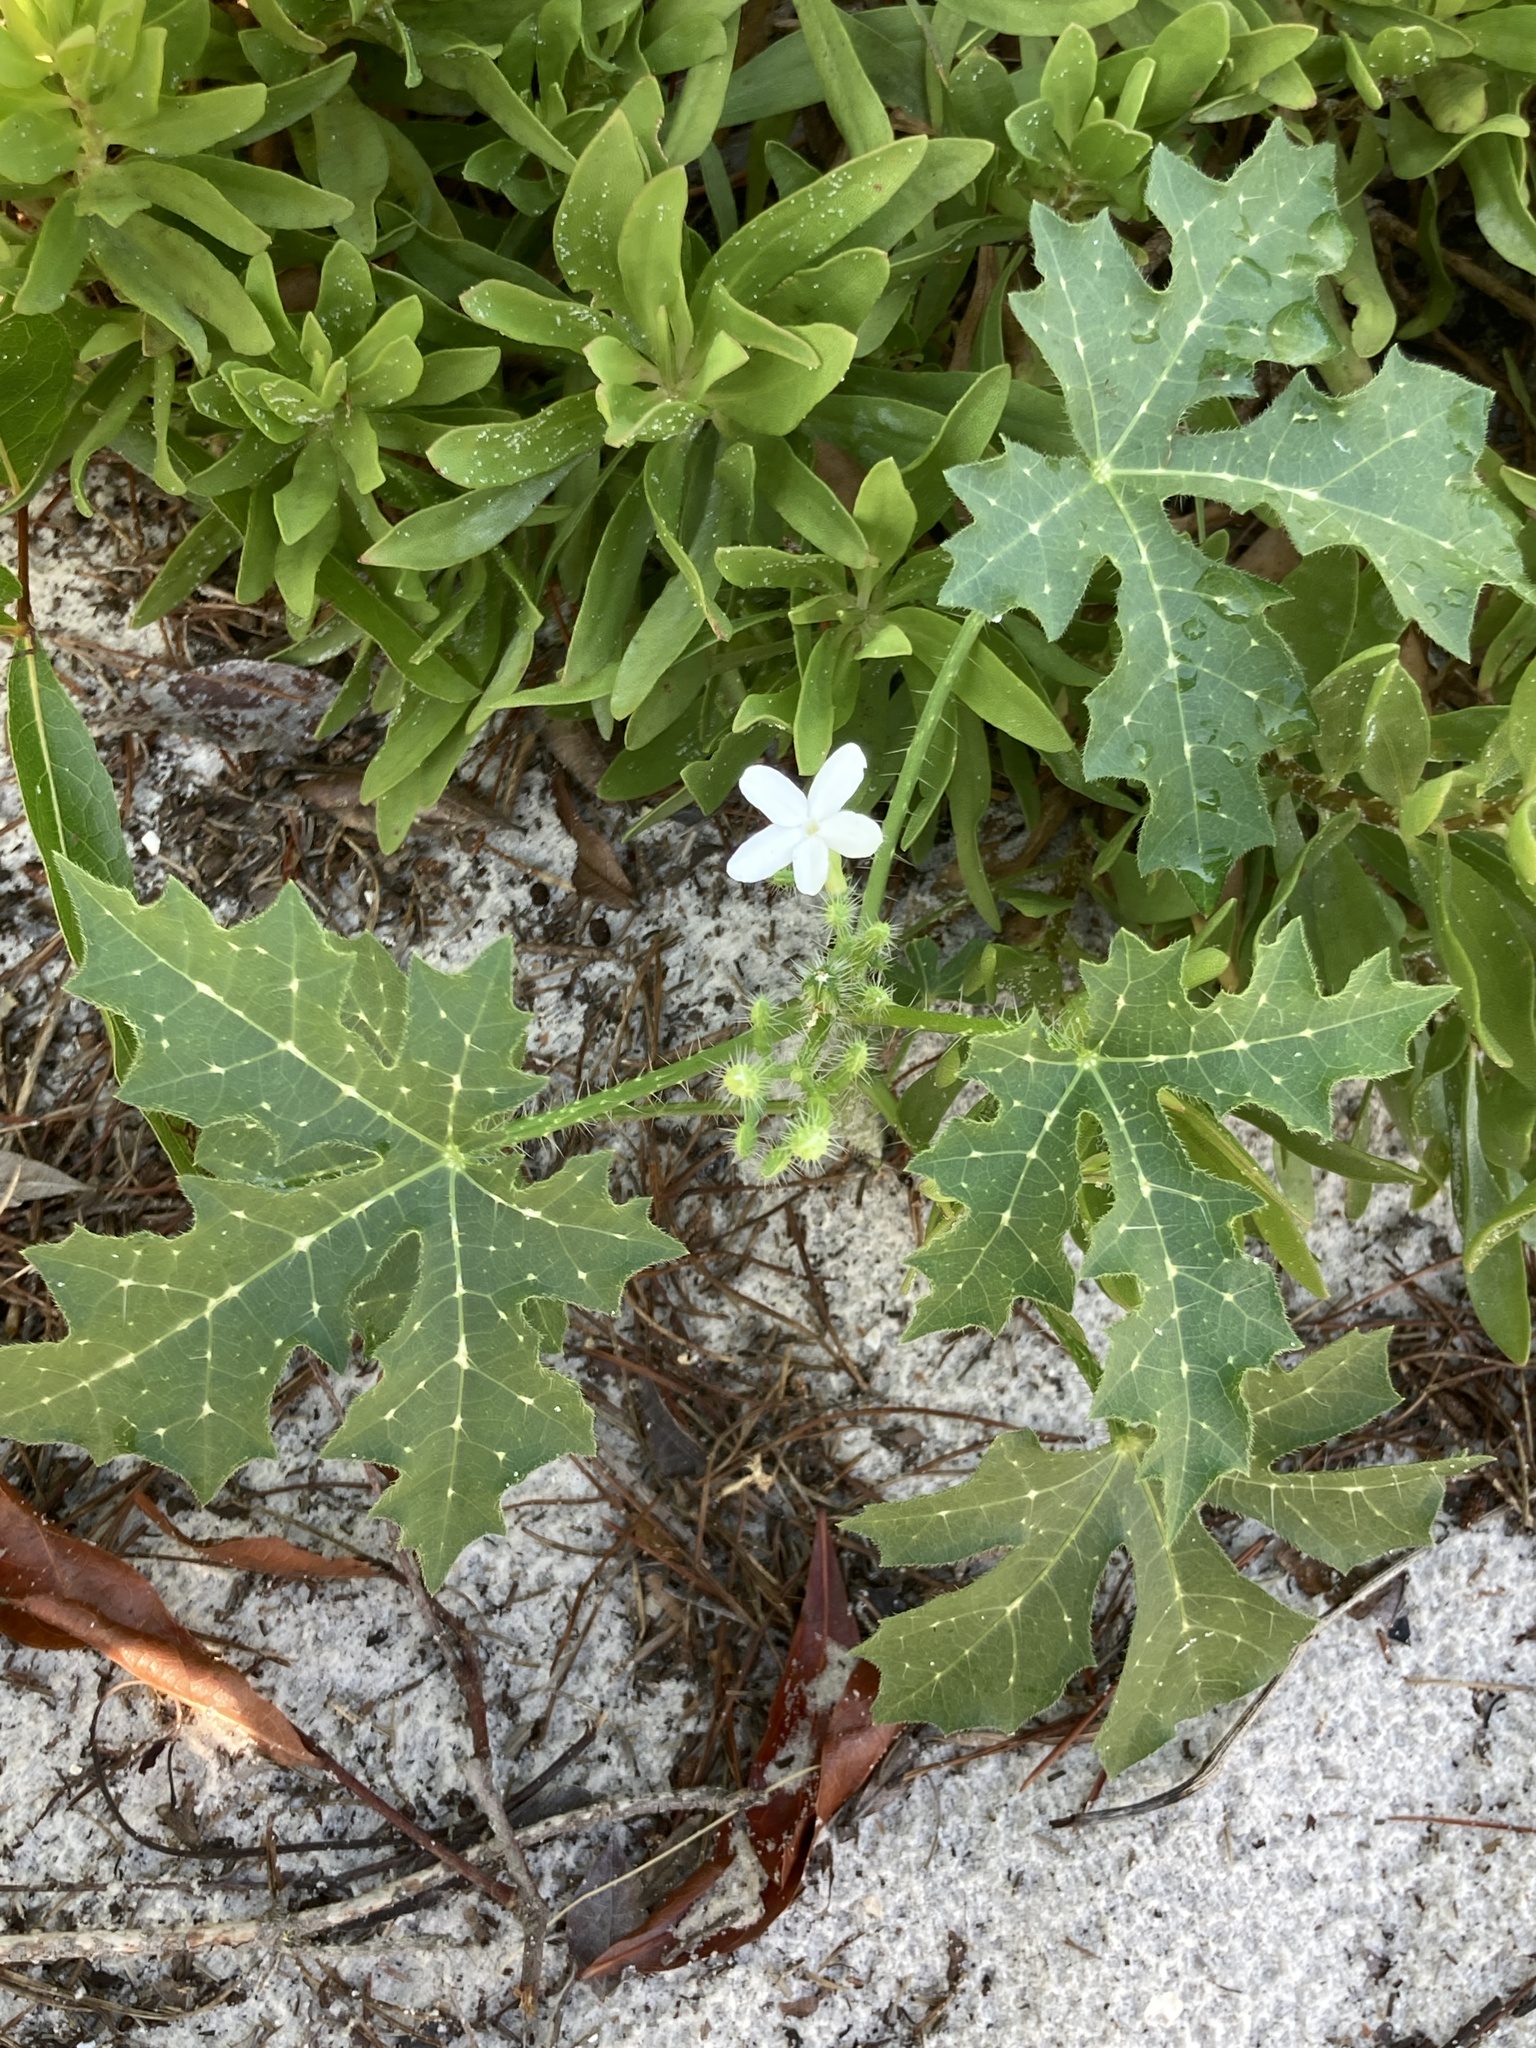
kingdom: Plantae
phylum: Tracheophyta
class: Magnoliopsida
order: Malpighiales
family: Euphorbiaceae
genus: Cnidoscolus
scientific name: Cnidoscolus stimulosus
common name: Bull-nettle
